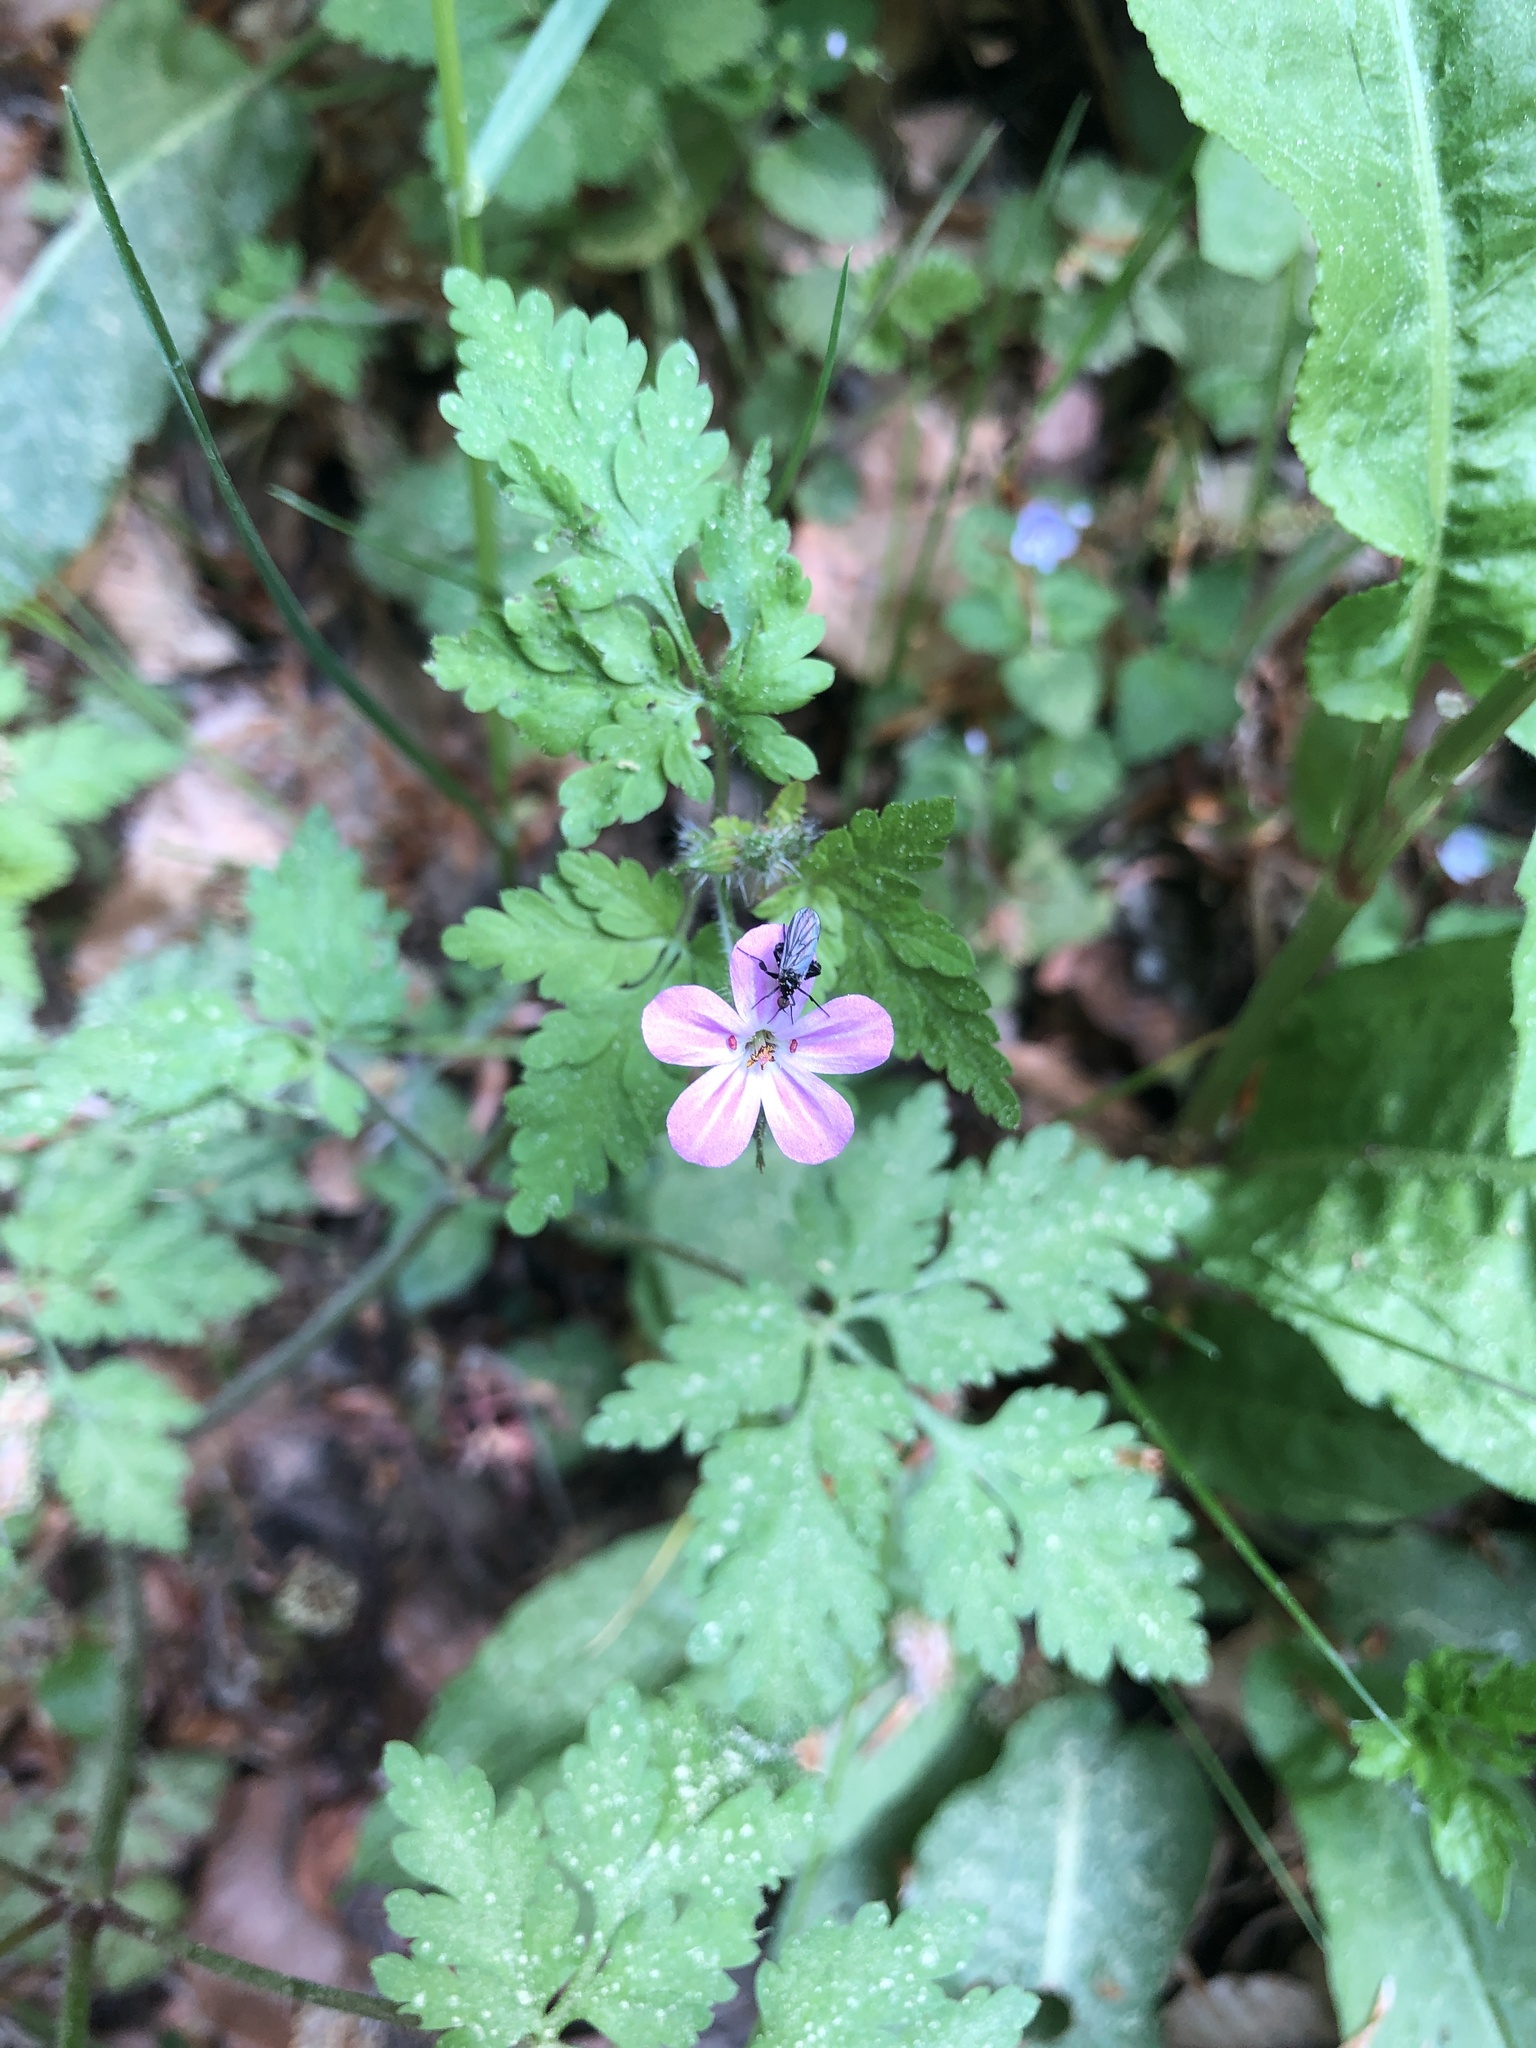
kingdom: Plantae
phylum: Tracheophyta
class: Magnoliopsida
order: Geraniales
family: Geraniaceae
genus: Geranium
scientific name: Geranium robertianum
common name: Herb-robert
